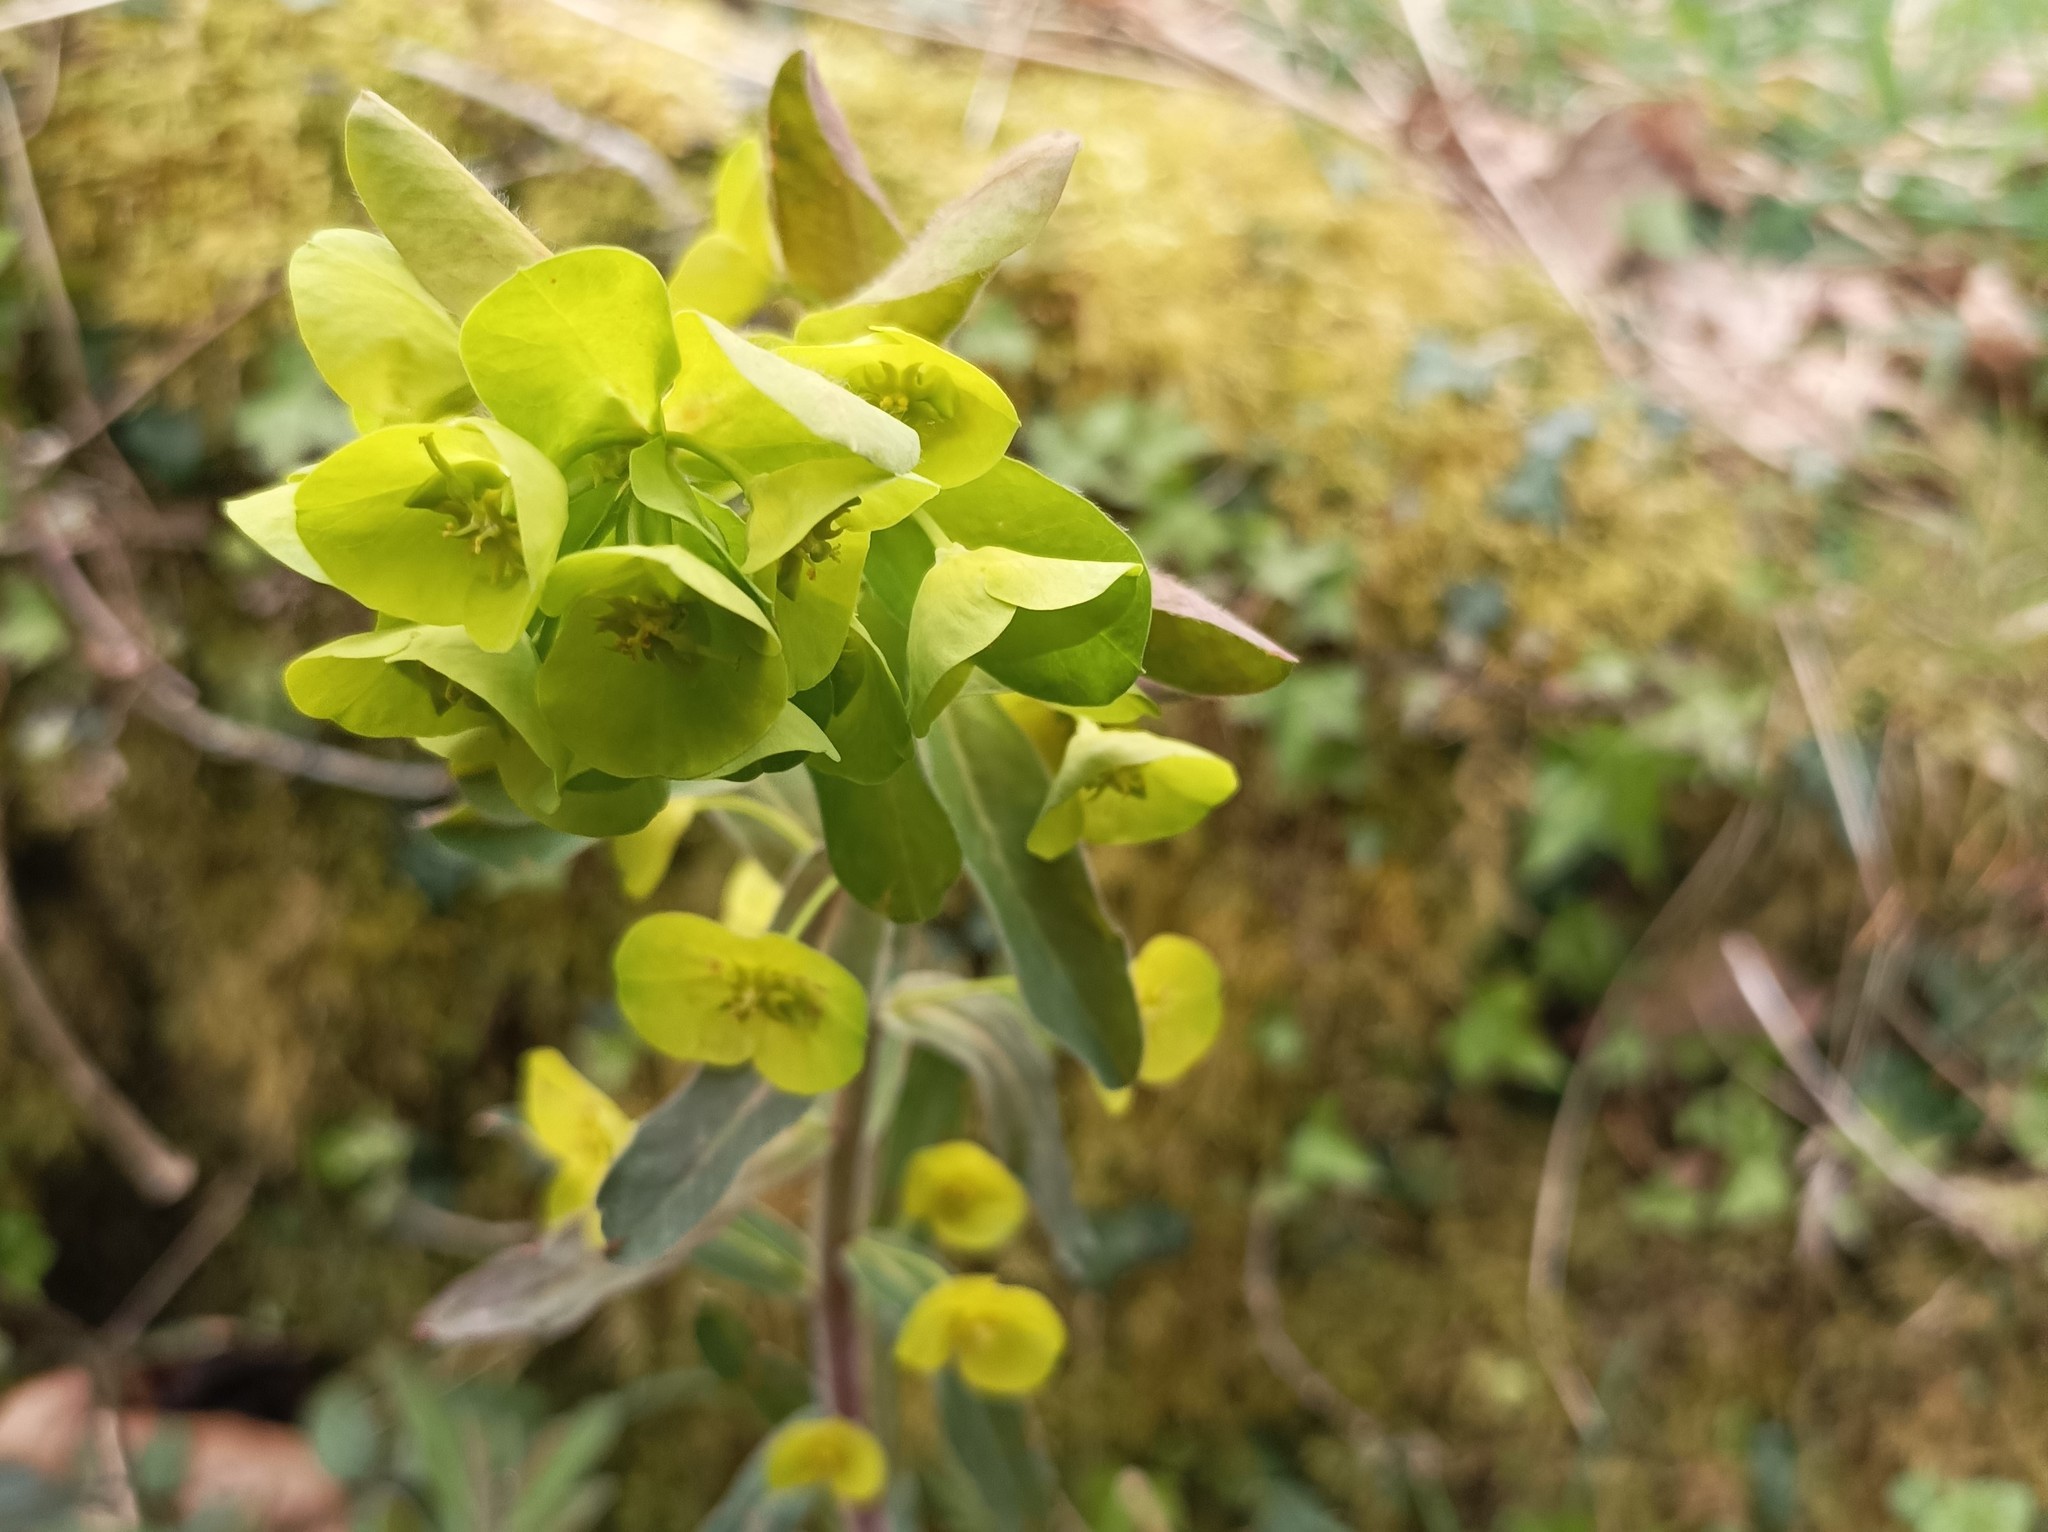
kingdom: Plantae
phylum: Tracheophyta
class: Magnoliopsida
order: Malpighiales
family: Euphorbiaceae
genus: Euphorbia
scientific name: Euphorbia amygdaloides
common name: Wood spurge
